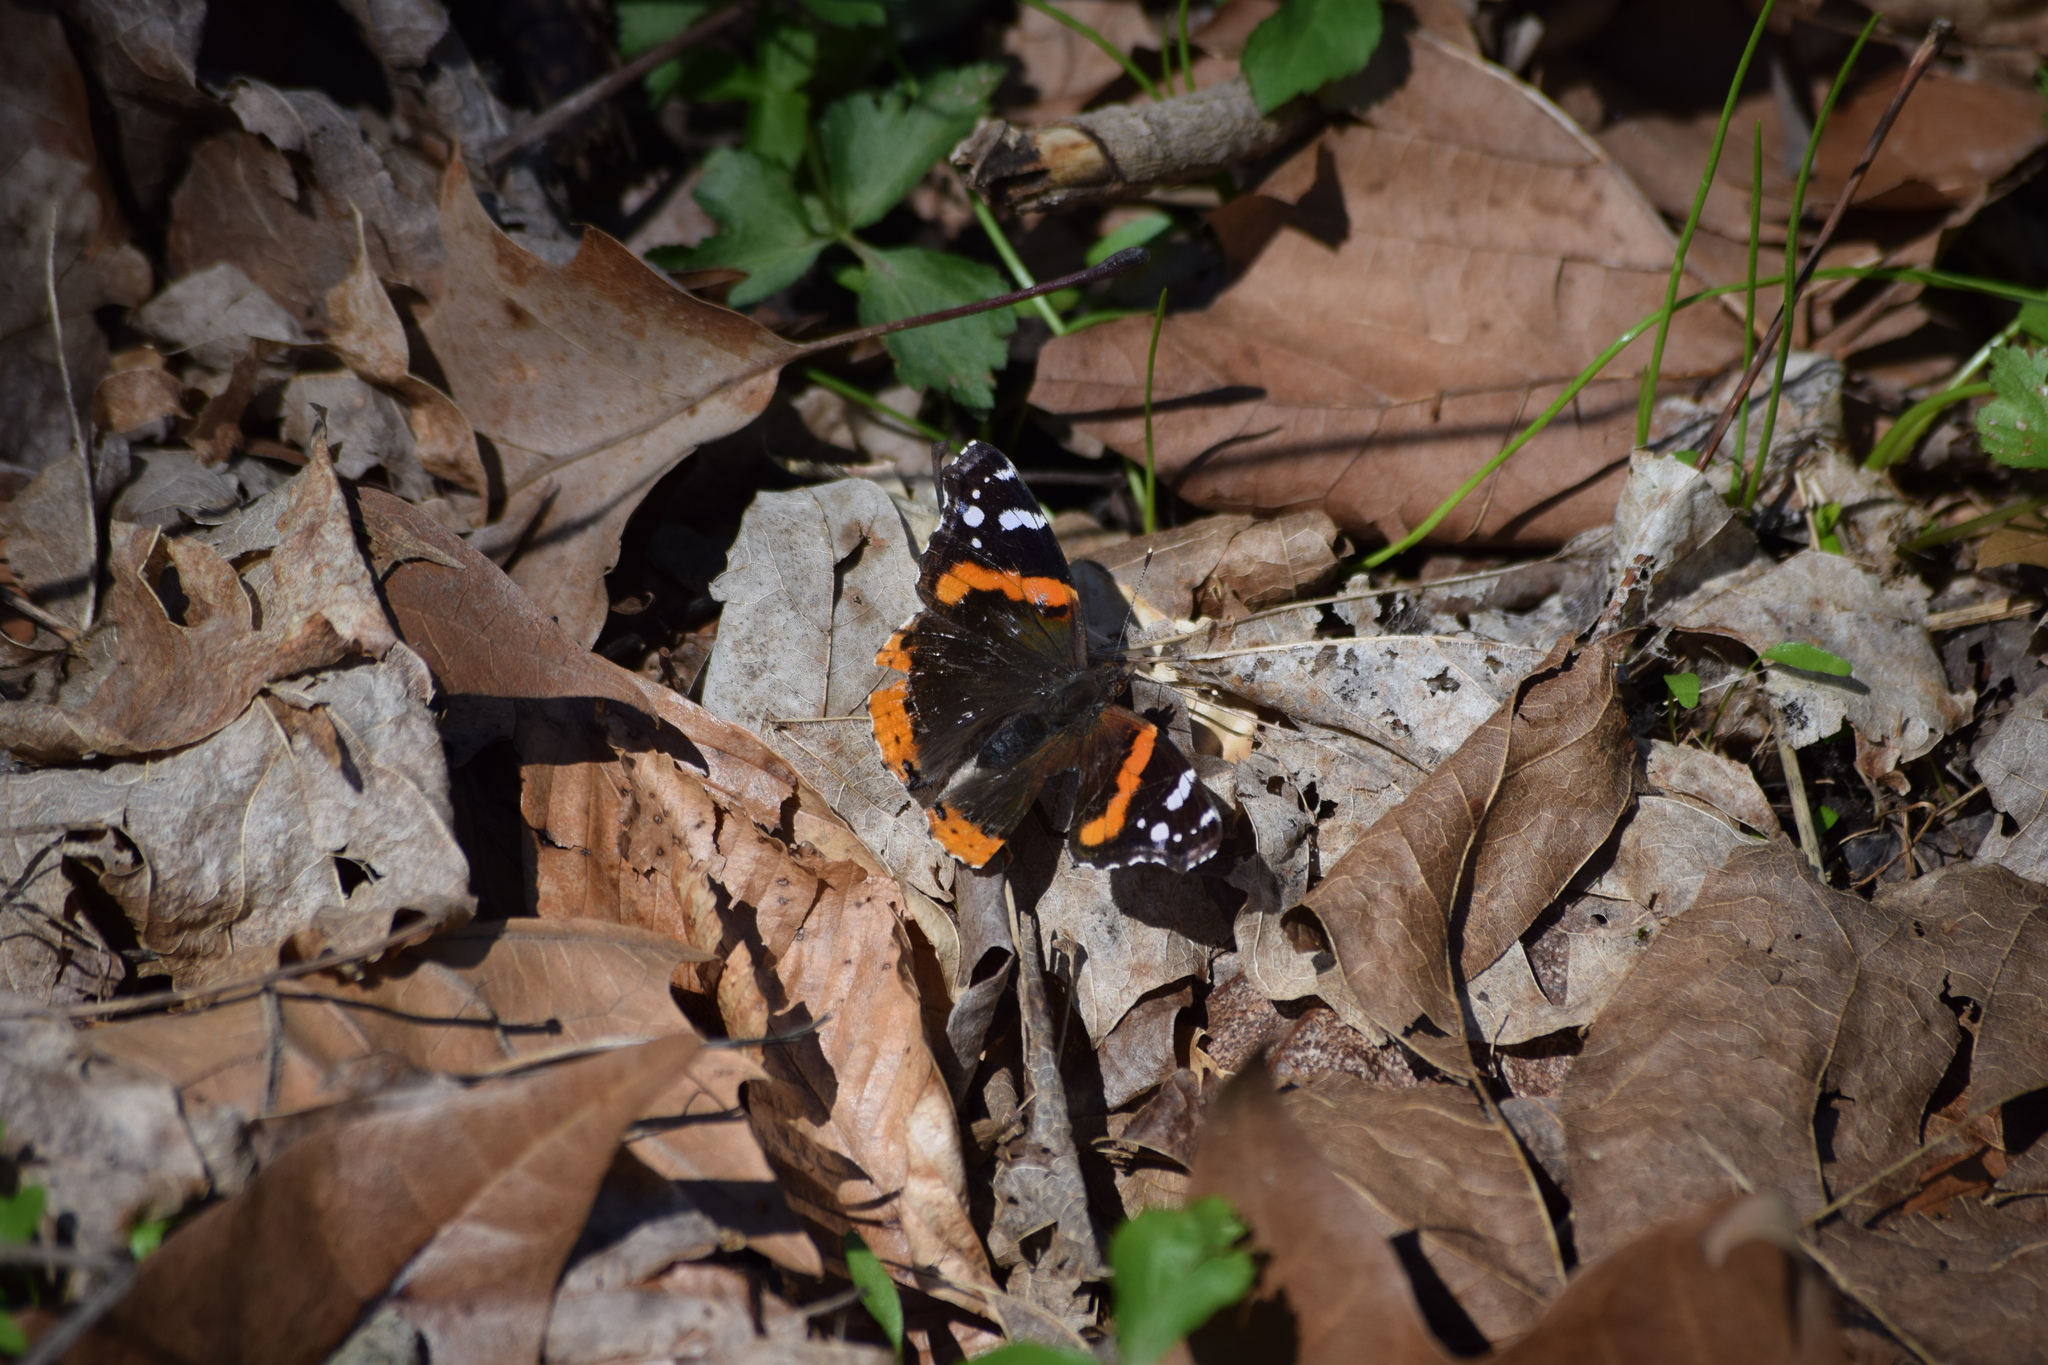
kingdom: Animalia
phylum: Arthropoda
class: Insecta
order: Lepidoptera
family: Nymphalidae
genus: Vanessa
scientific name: Vanessa atalanta
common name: Red admiral
